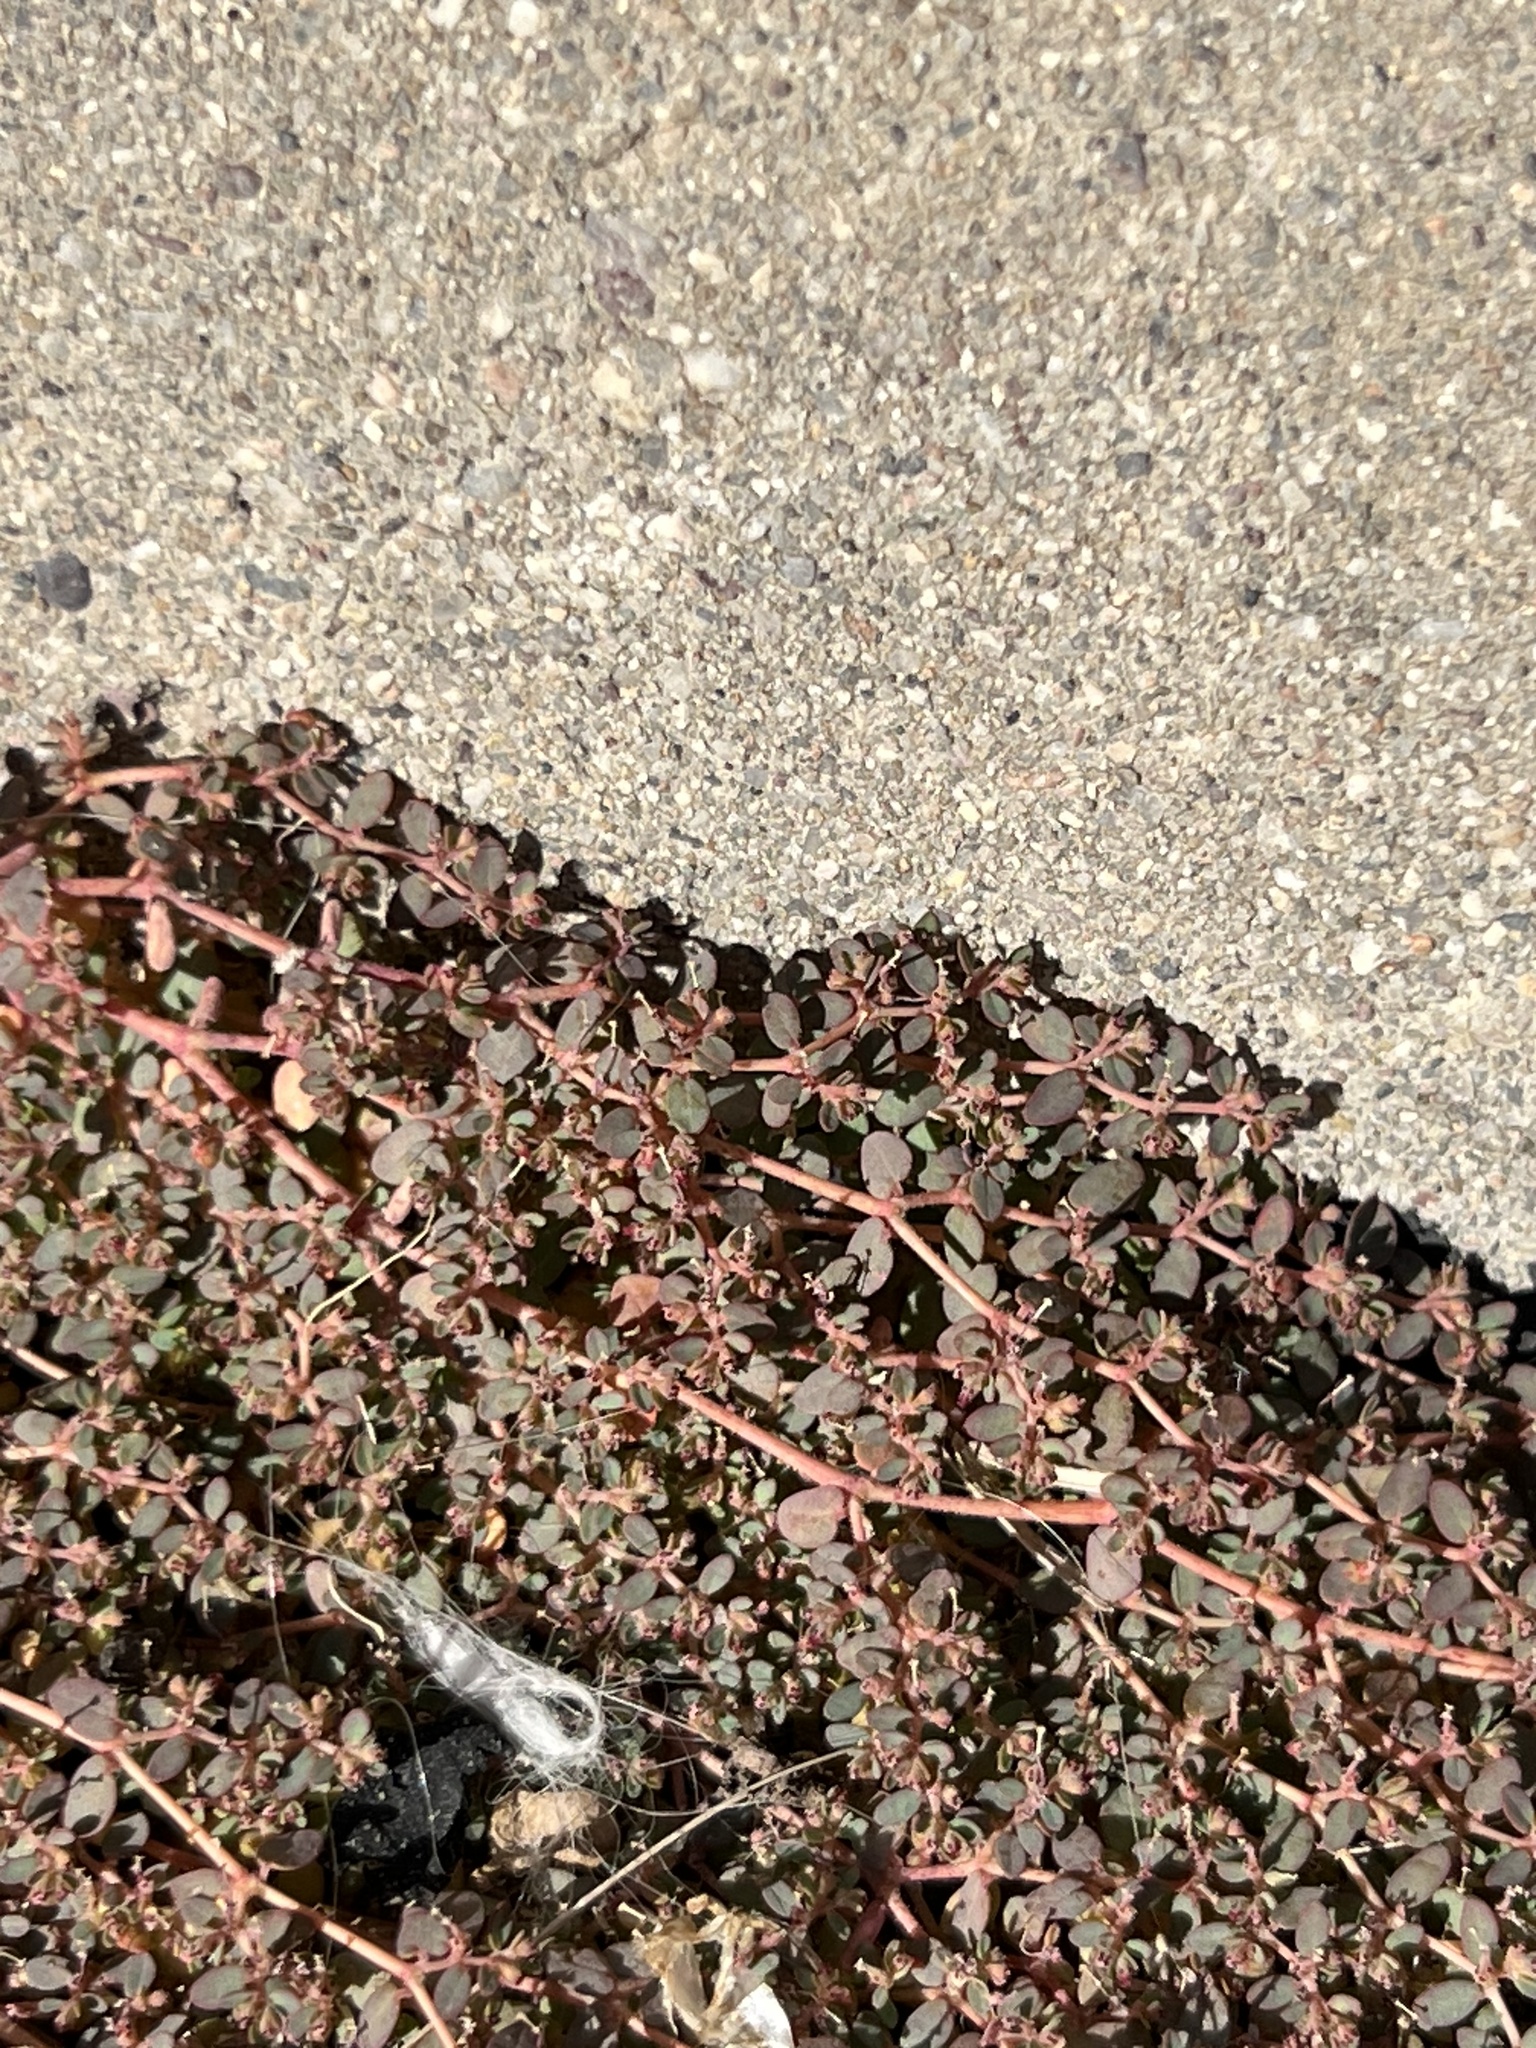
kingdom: Plantae
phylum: Tracheophyta
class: Magnoliopsida
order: Malpighiales
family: Euphorbiaceae
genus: Euphorbia
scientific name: Euphorbia micromera
